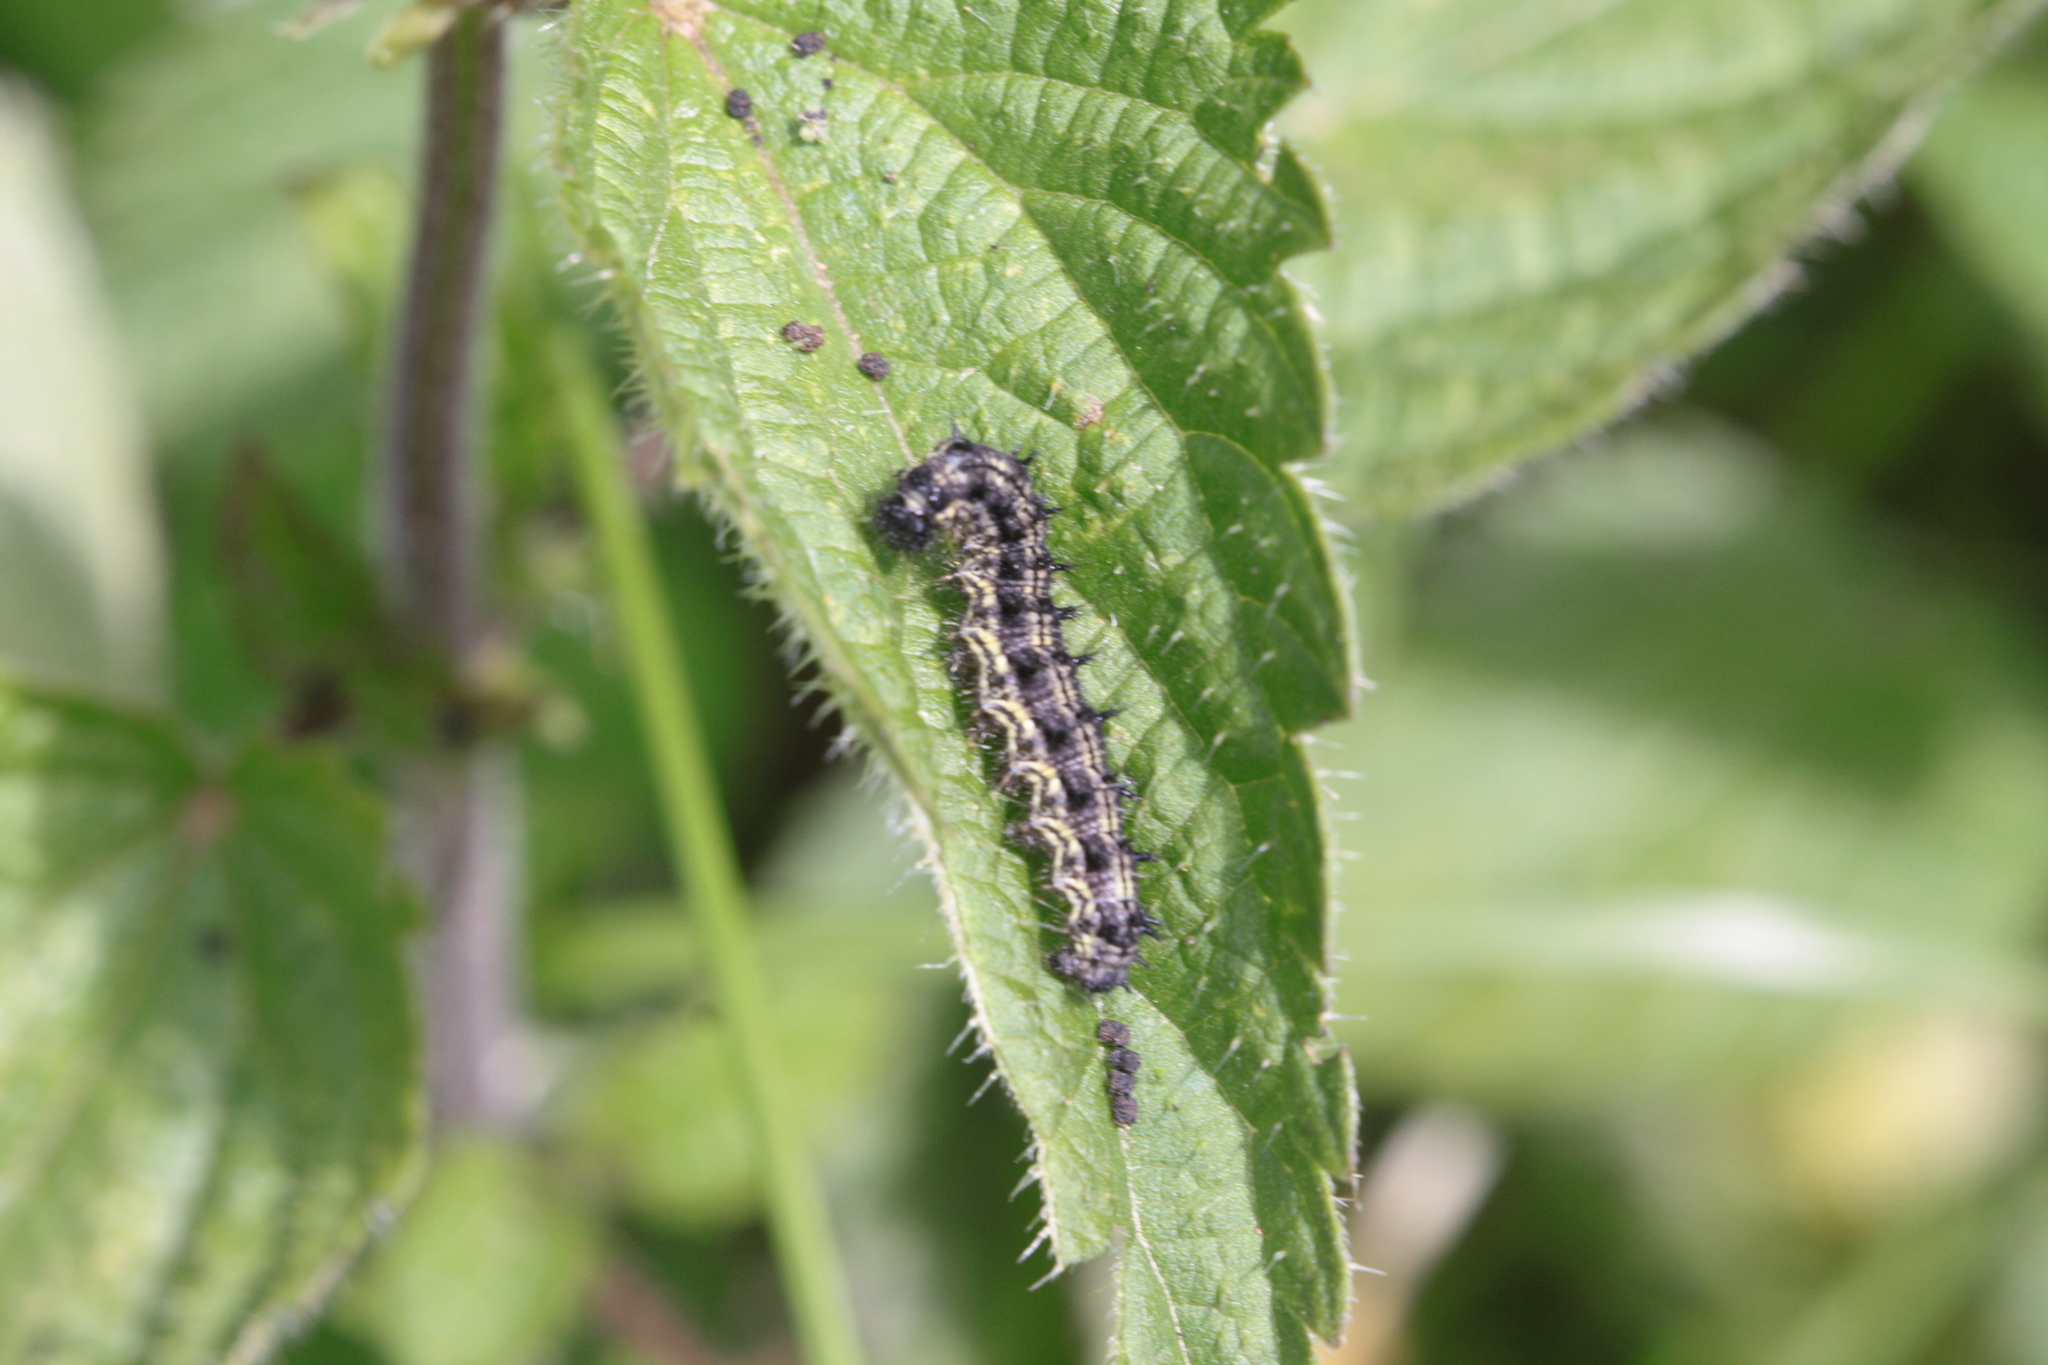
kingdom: Animalia
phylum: Arthropoda
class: Insecta
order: Lepidoptera
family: Nymphalidae
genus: Aglais
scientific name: Aglais urticae
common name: Small tortoiseshell
